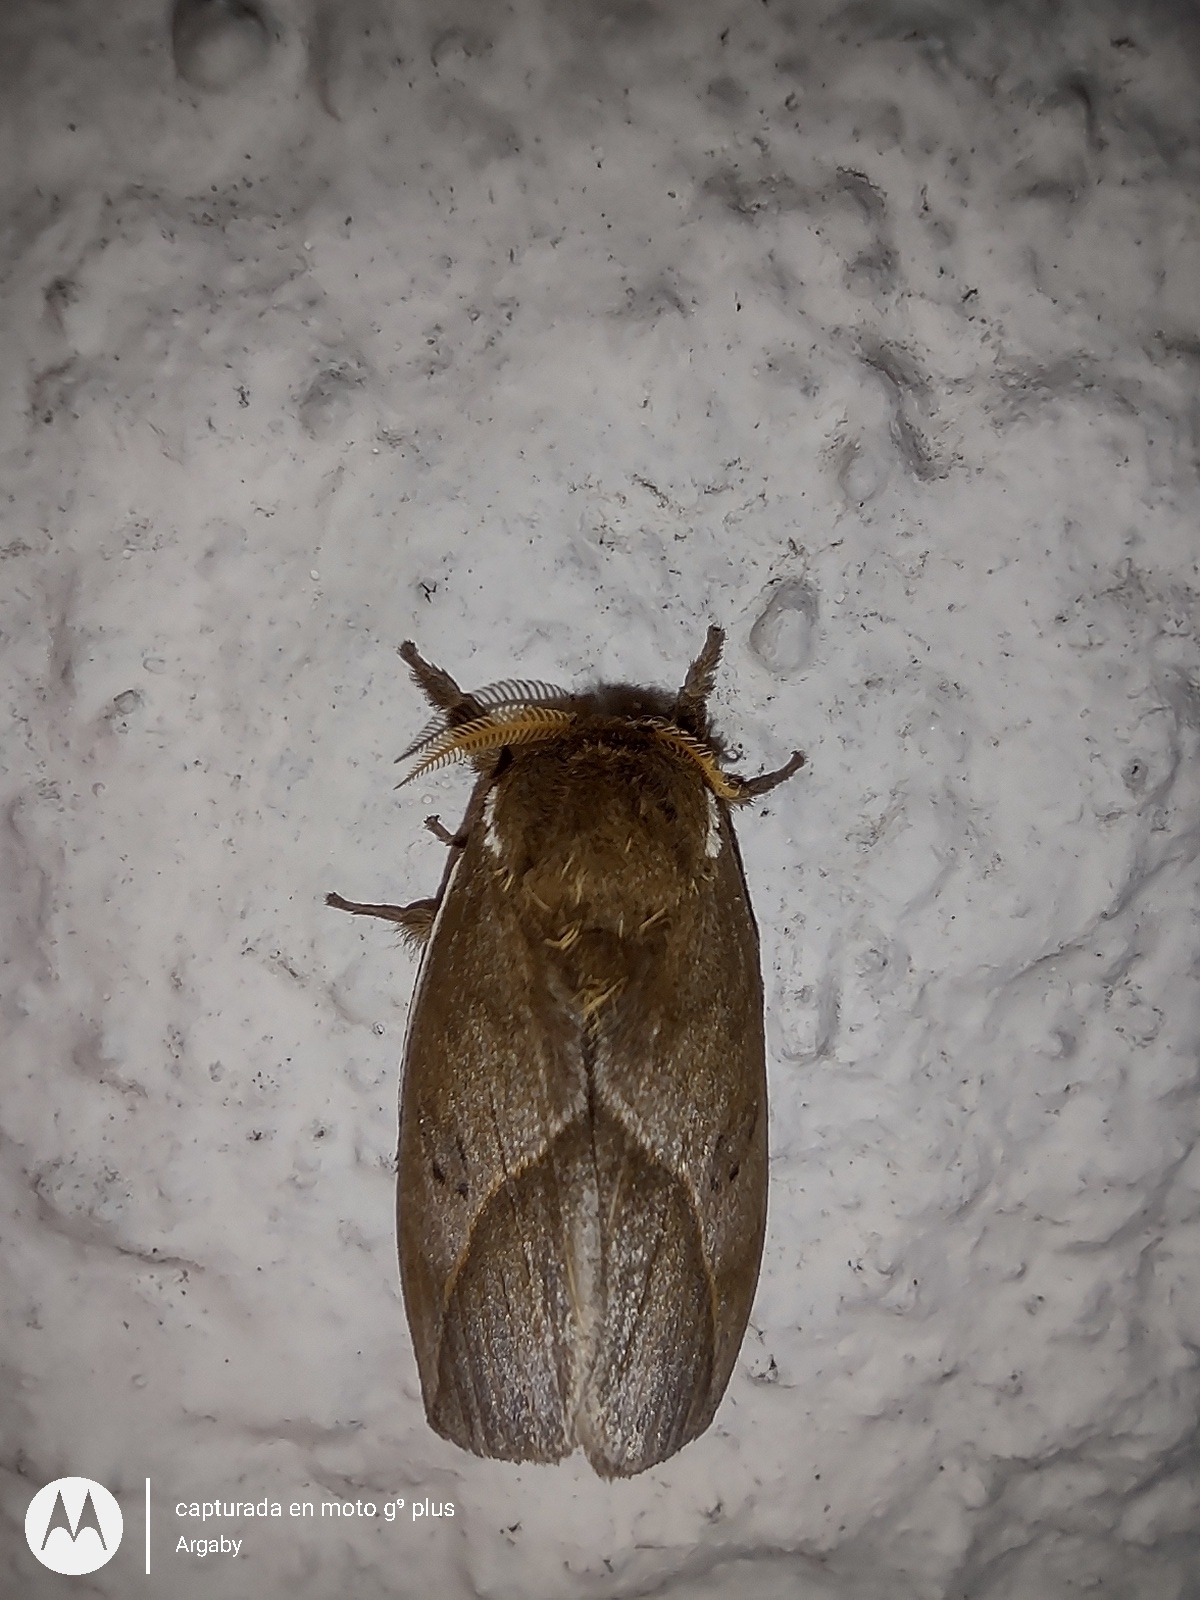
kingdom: Animalia
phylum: Arthropoda
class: Insecta
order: Lepidoptera
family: Saturniidae
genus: Automeris
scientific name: Automeris naranja
